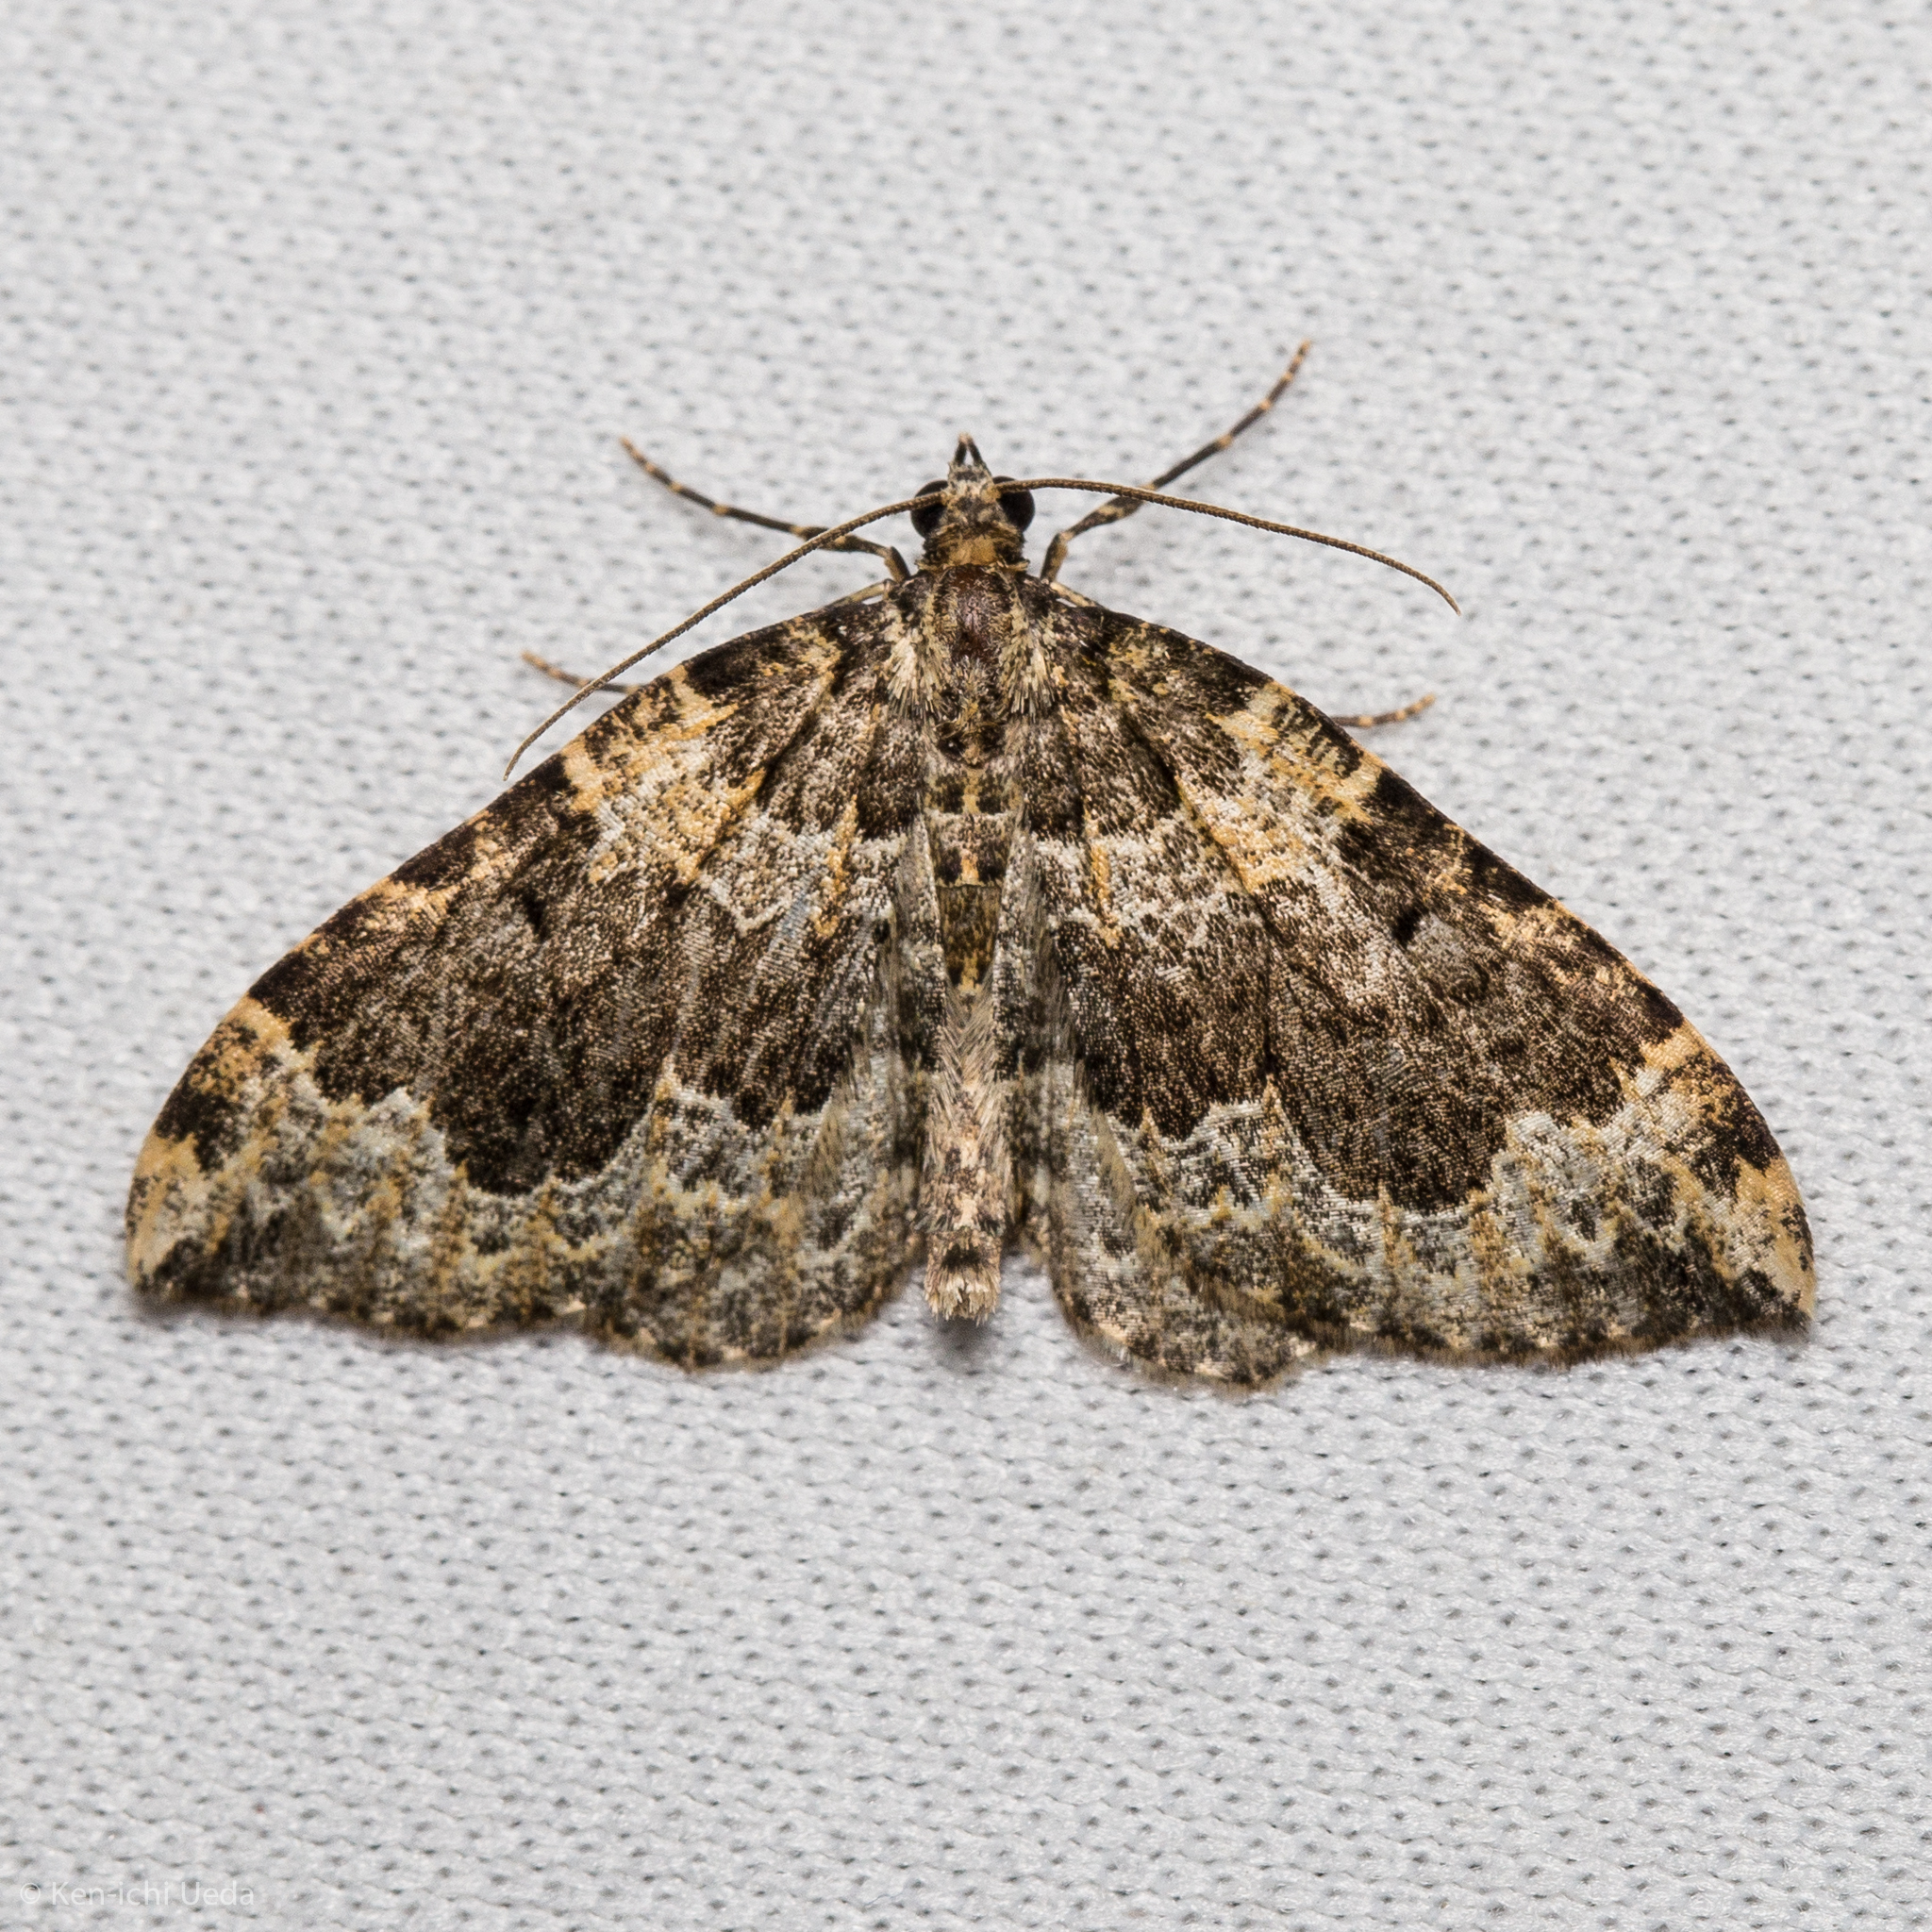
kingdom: Animalia
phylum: Arthropoda
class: Insecta
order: Lepidoptera
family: Geometridae
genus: Eustroma
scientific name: Eustroma semiatrata
